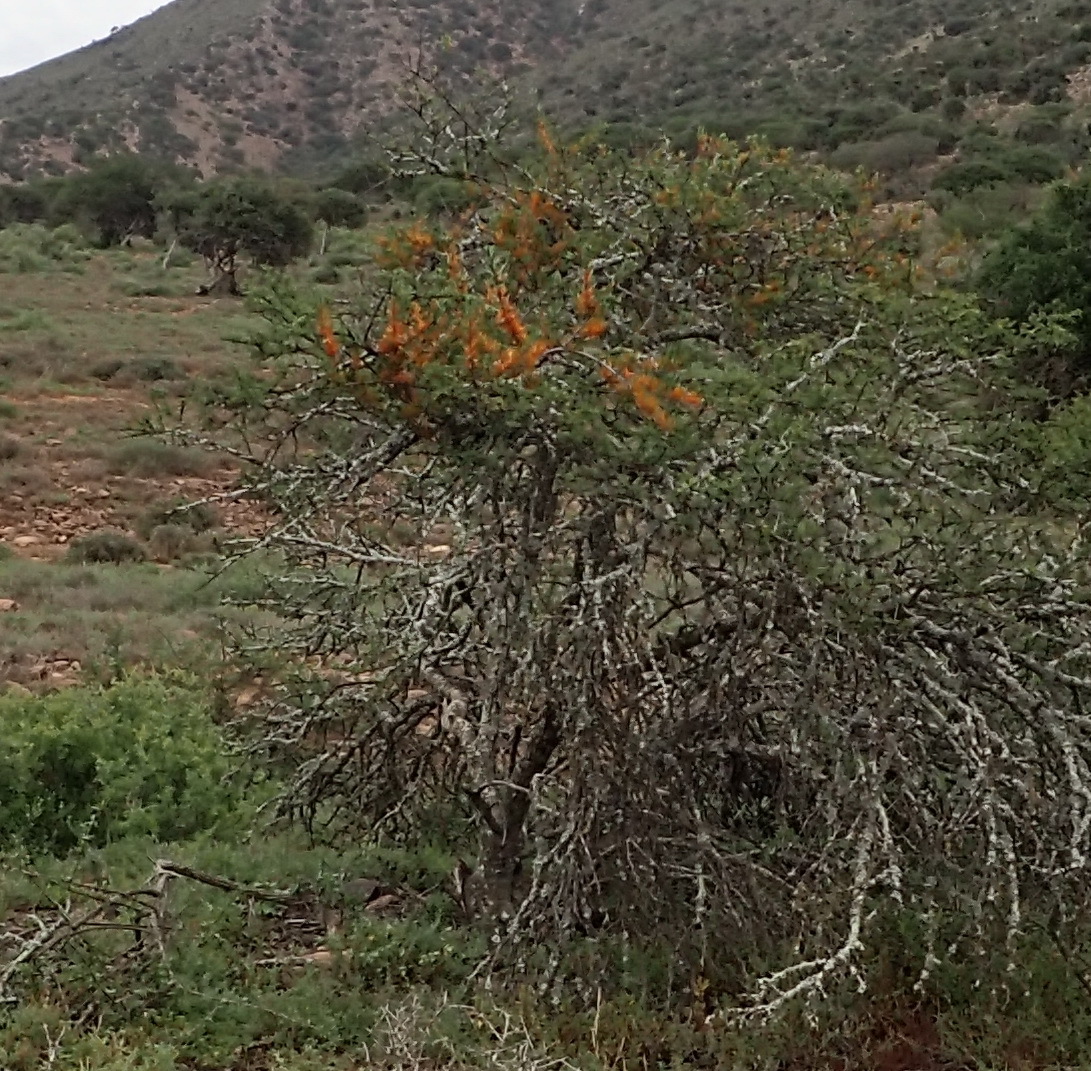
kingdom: Plantae
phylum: Tracheophyta
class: Magnoliopsida
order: Santalales
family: Loranthaceae
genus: Moquiniella
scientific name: Moquiniella rubra
